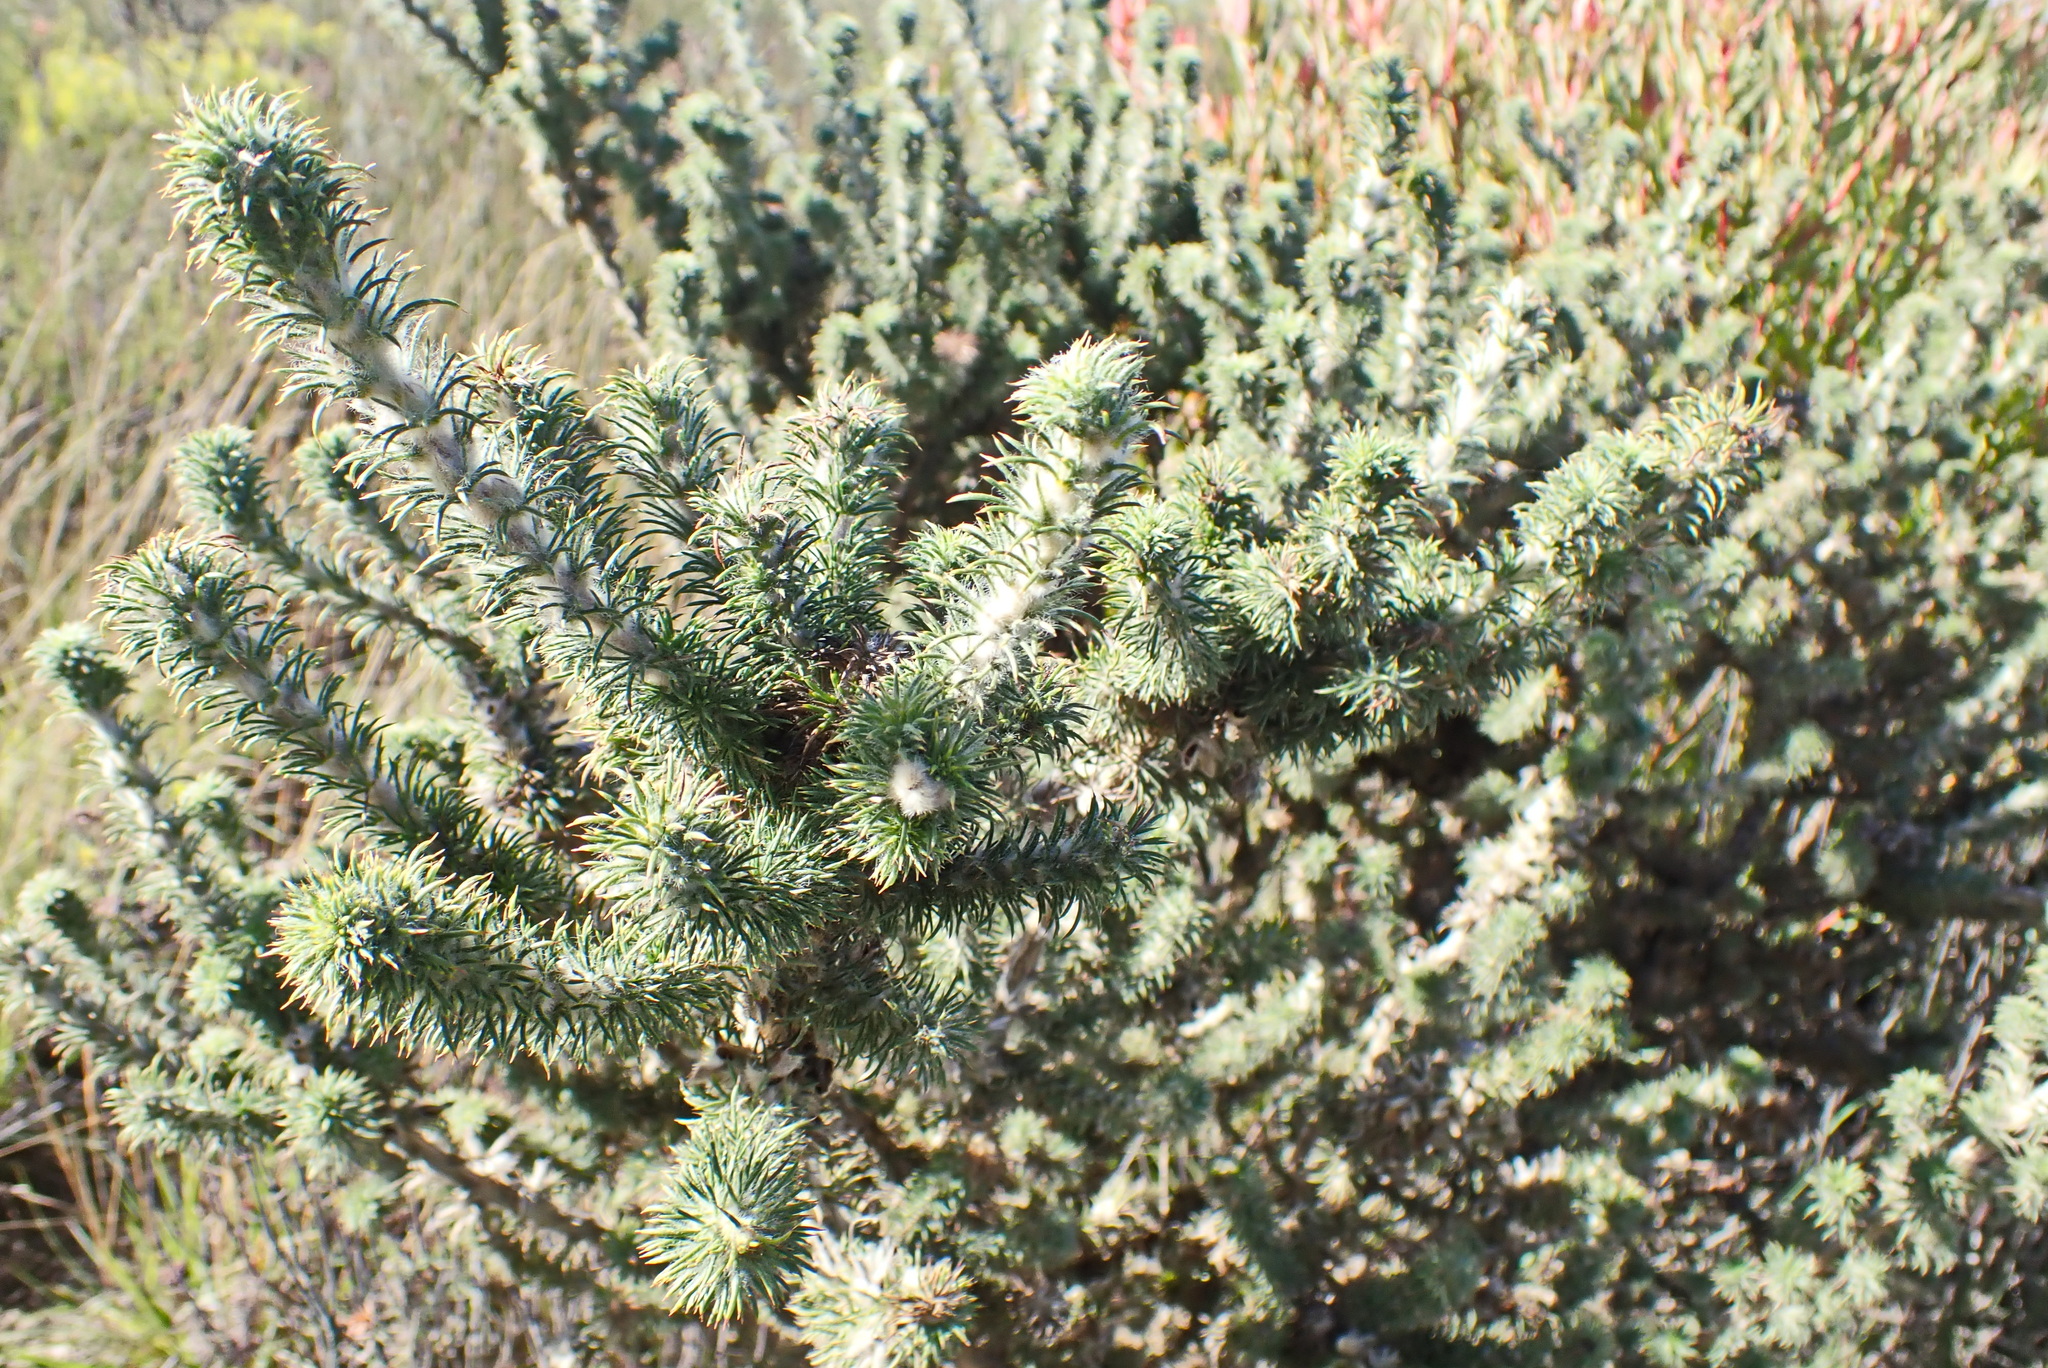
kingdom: Plantae
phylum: Tracheophyta
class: Magnoliopsida
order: Fabales
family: Fabaceae
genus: Aspalathus
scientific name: Aspalathus shawii
